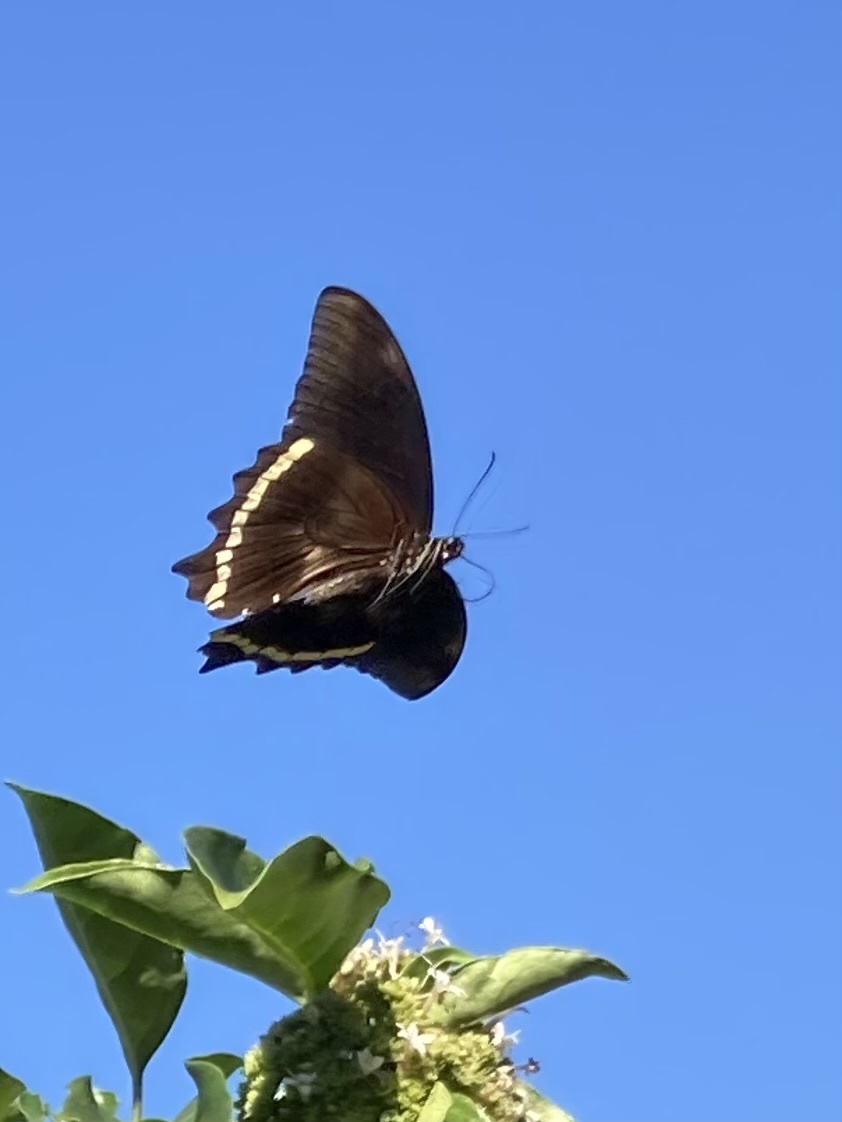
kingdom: Animalia
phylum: Arthropoda
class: Insecta
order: Lepidoptera
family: Papilionidae
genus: Papilio
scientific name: Papilio nireus
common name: Greenbanded swallowtail
